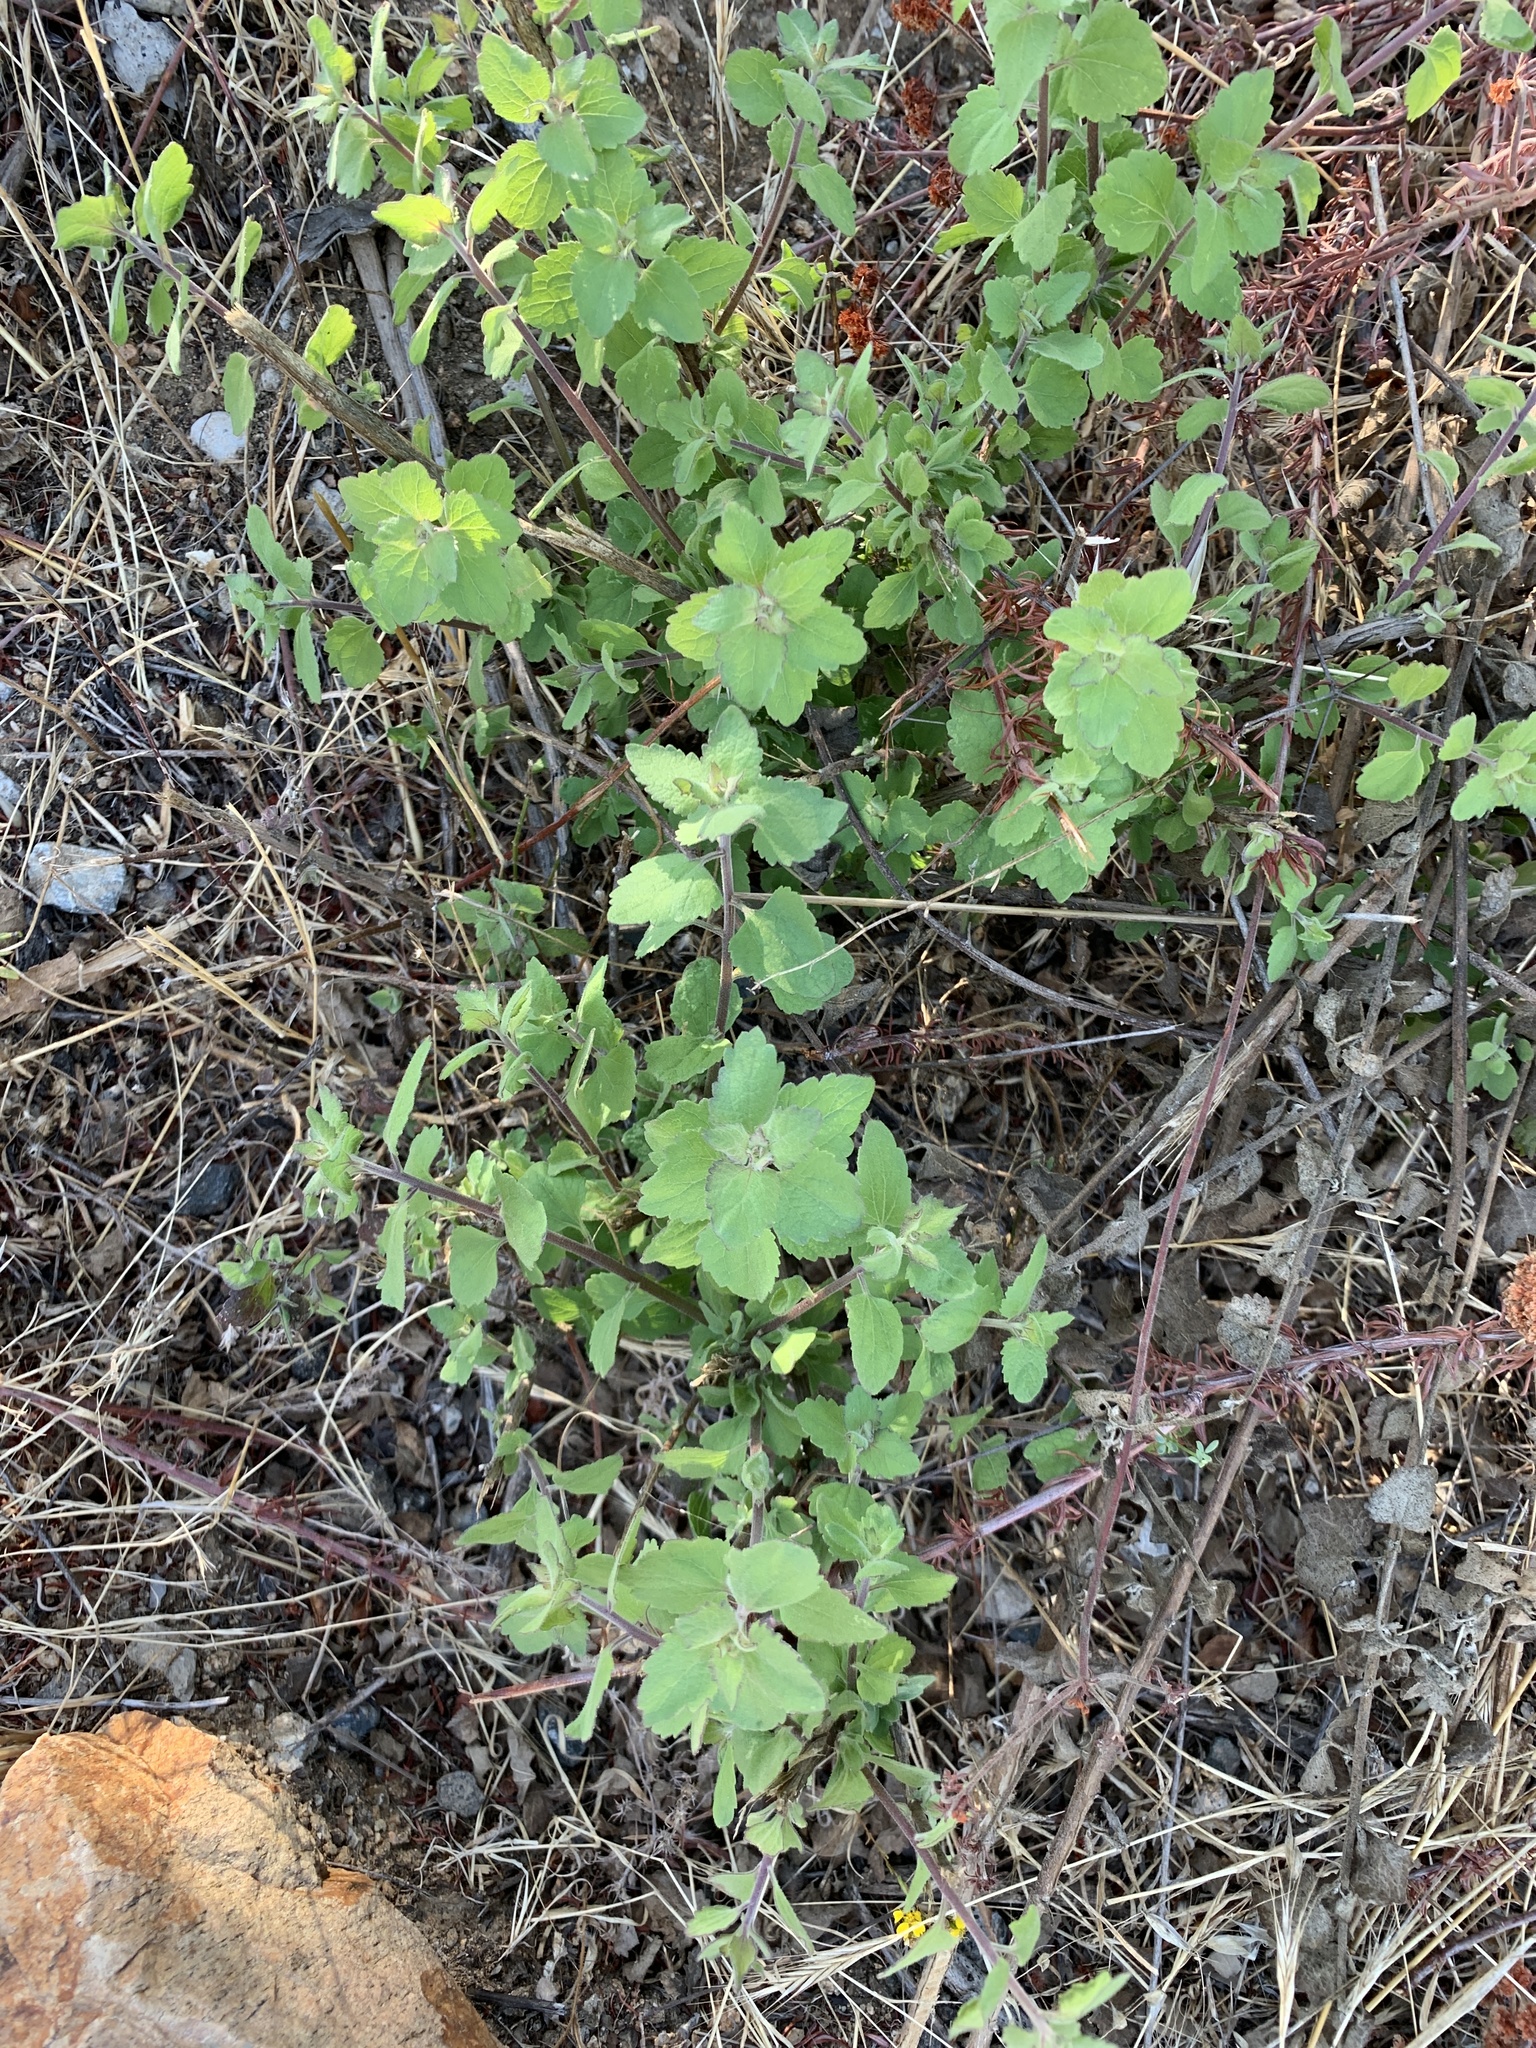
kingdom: Plantae
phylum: Tracheophyta
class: Magnoliopsida
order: Asterales
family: Asteraceae
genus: Brickellia
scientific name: Brickellia californica
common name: California brickellbush
